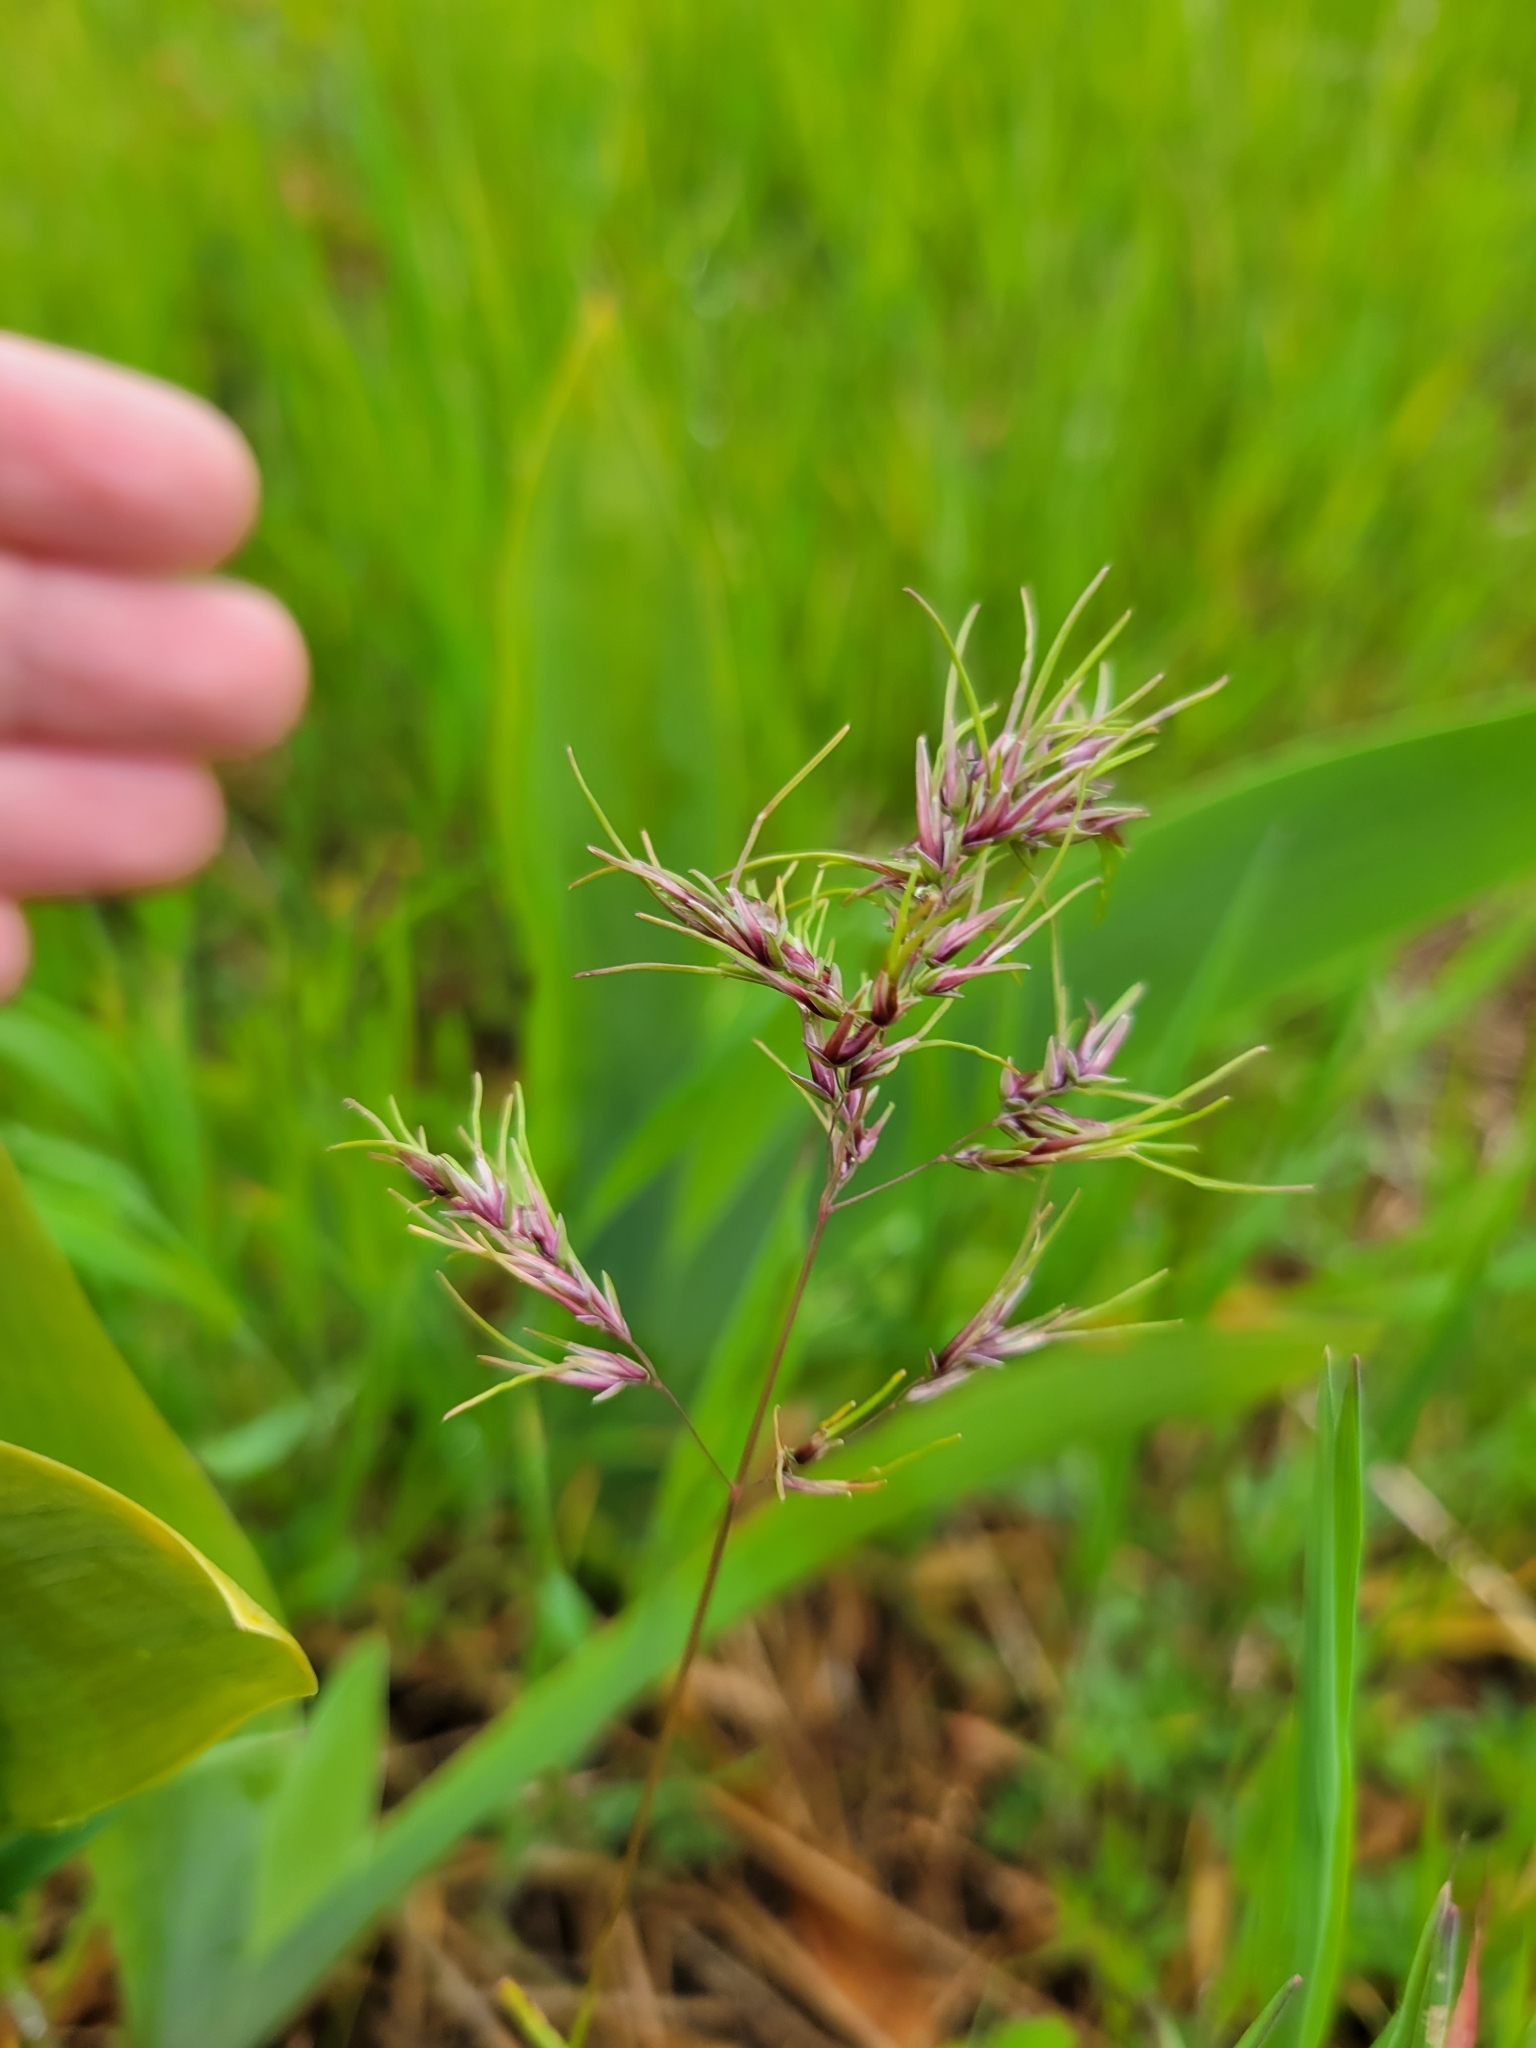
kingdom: Plantae
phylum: Tracheophyta
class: Liliopsida
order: Poales
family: Poaceae
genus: Poa
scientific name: Poa bulbosa
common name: Bulbous bluegrass
